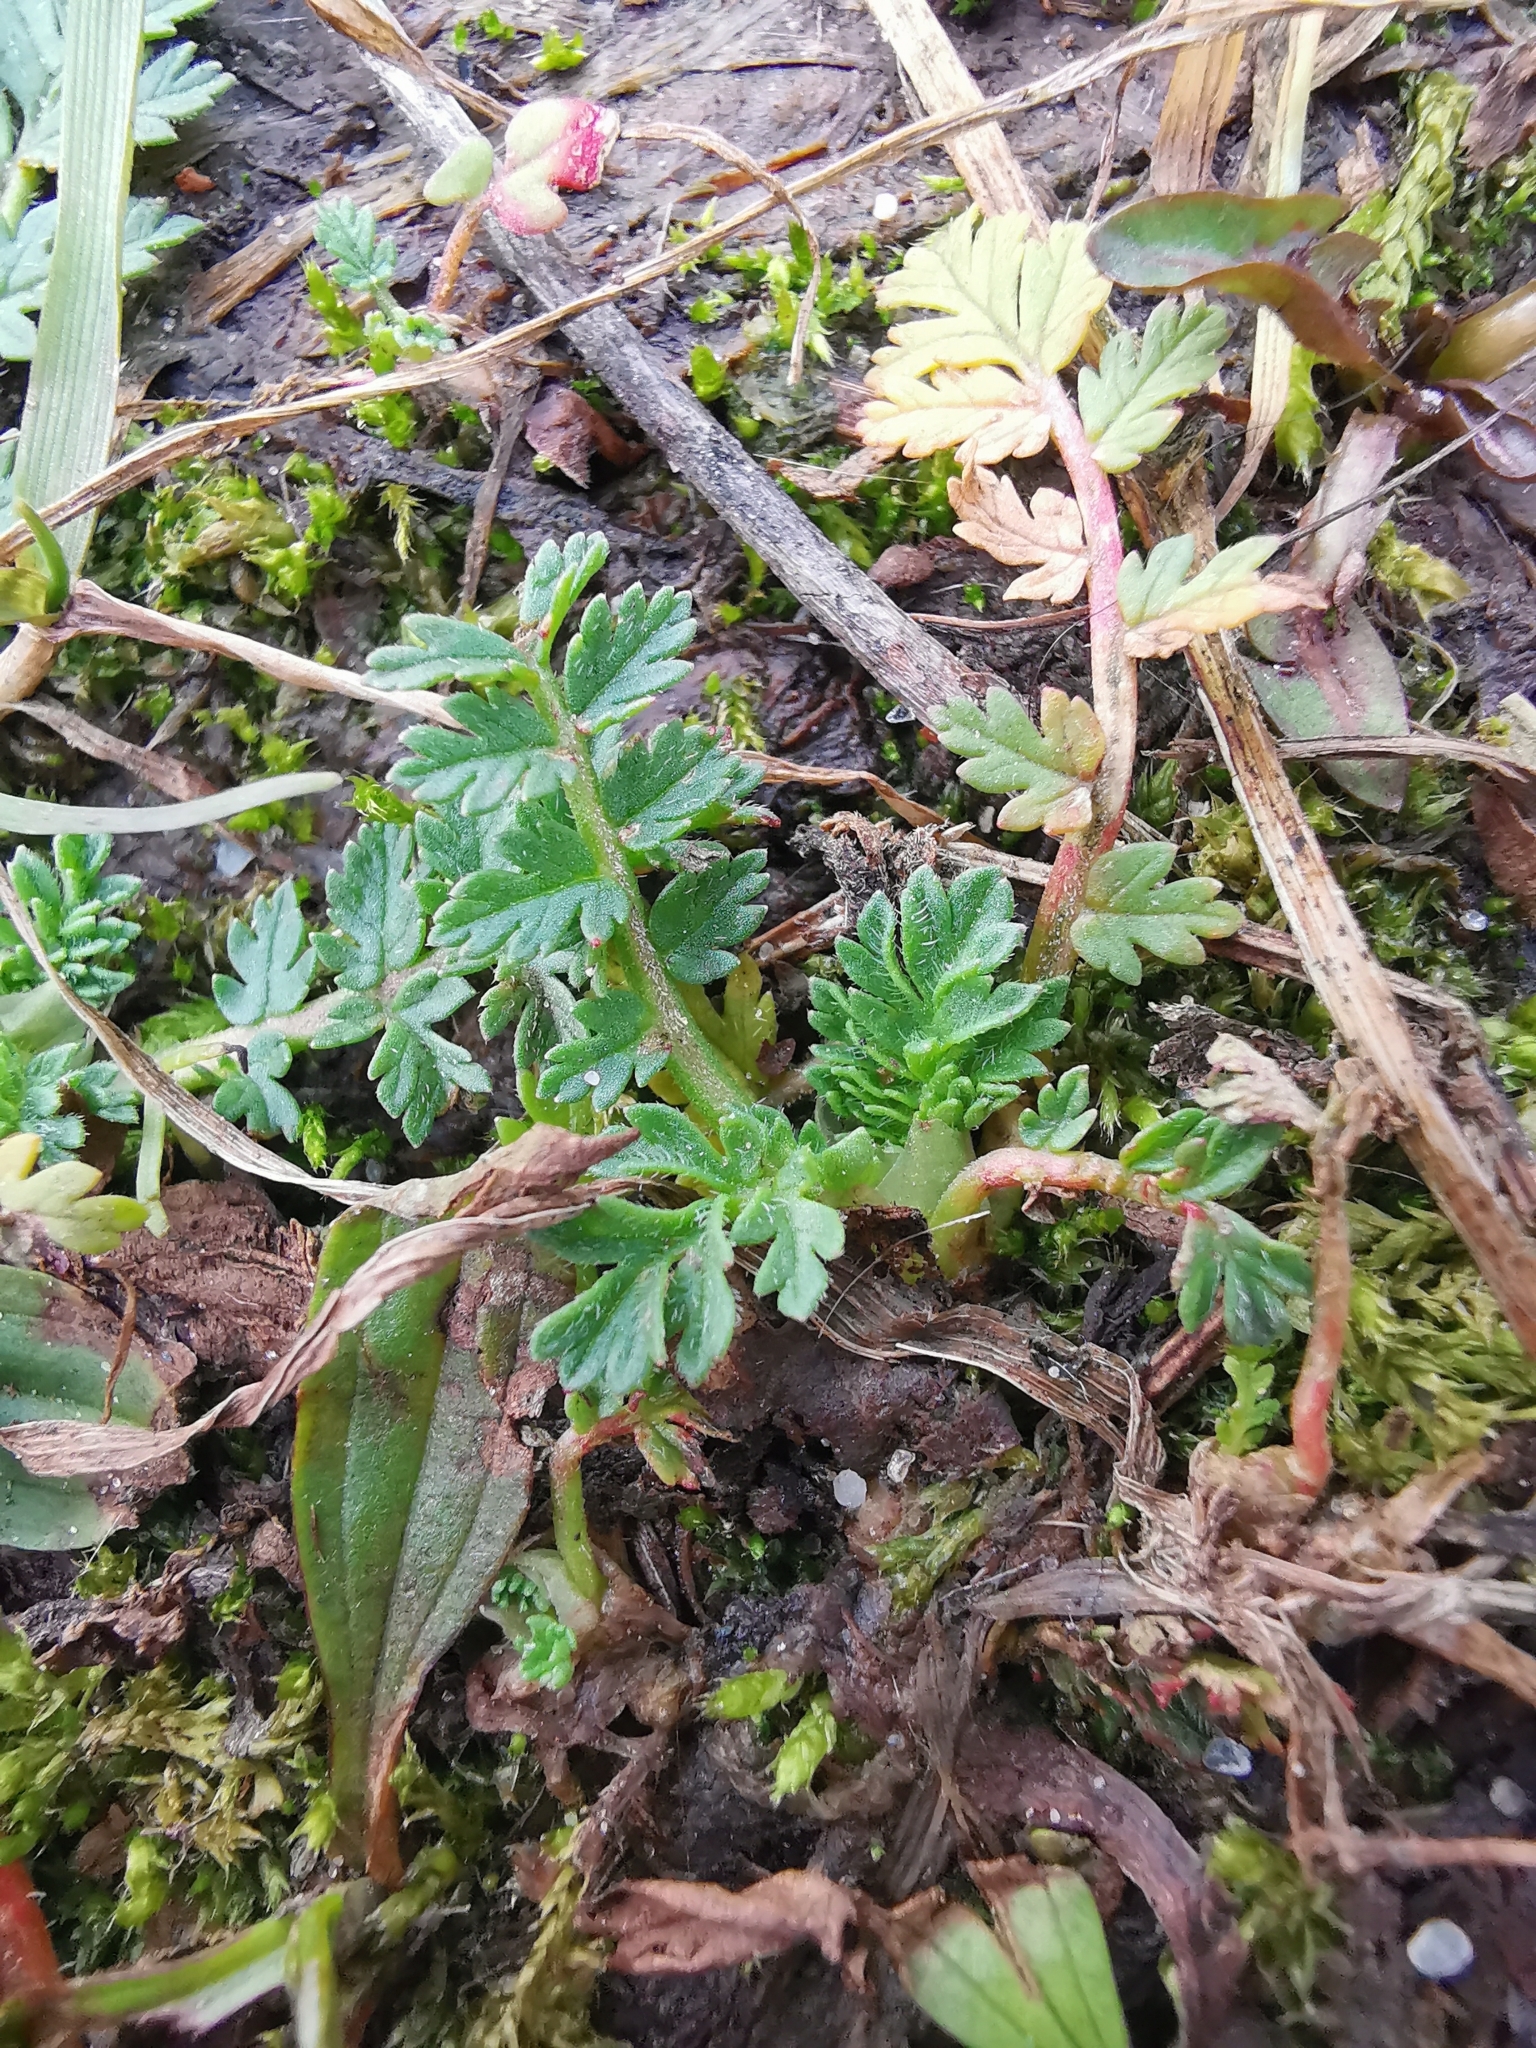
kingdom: Plantae
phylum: Tracheophyta
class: Magnoliopsida
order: Geraniales
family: Geraniaceae
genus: Erodium
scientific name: Erodium cicutarium
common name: Common stork's-bill
